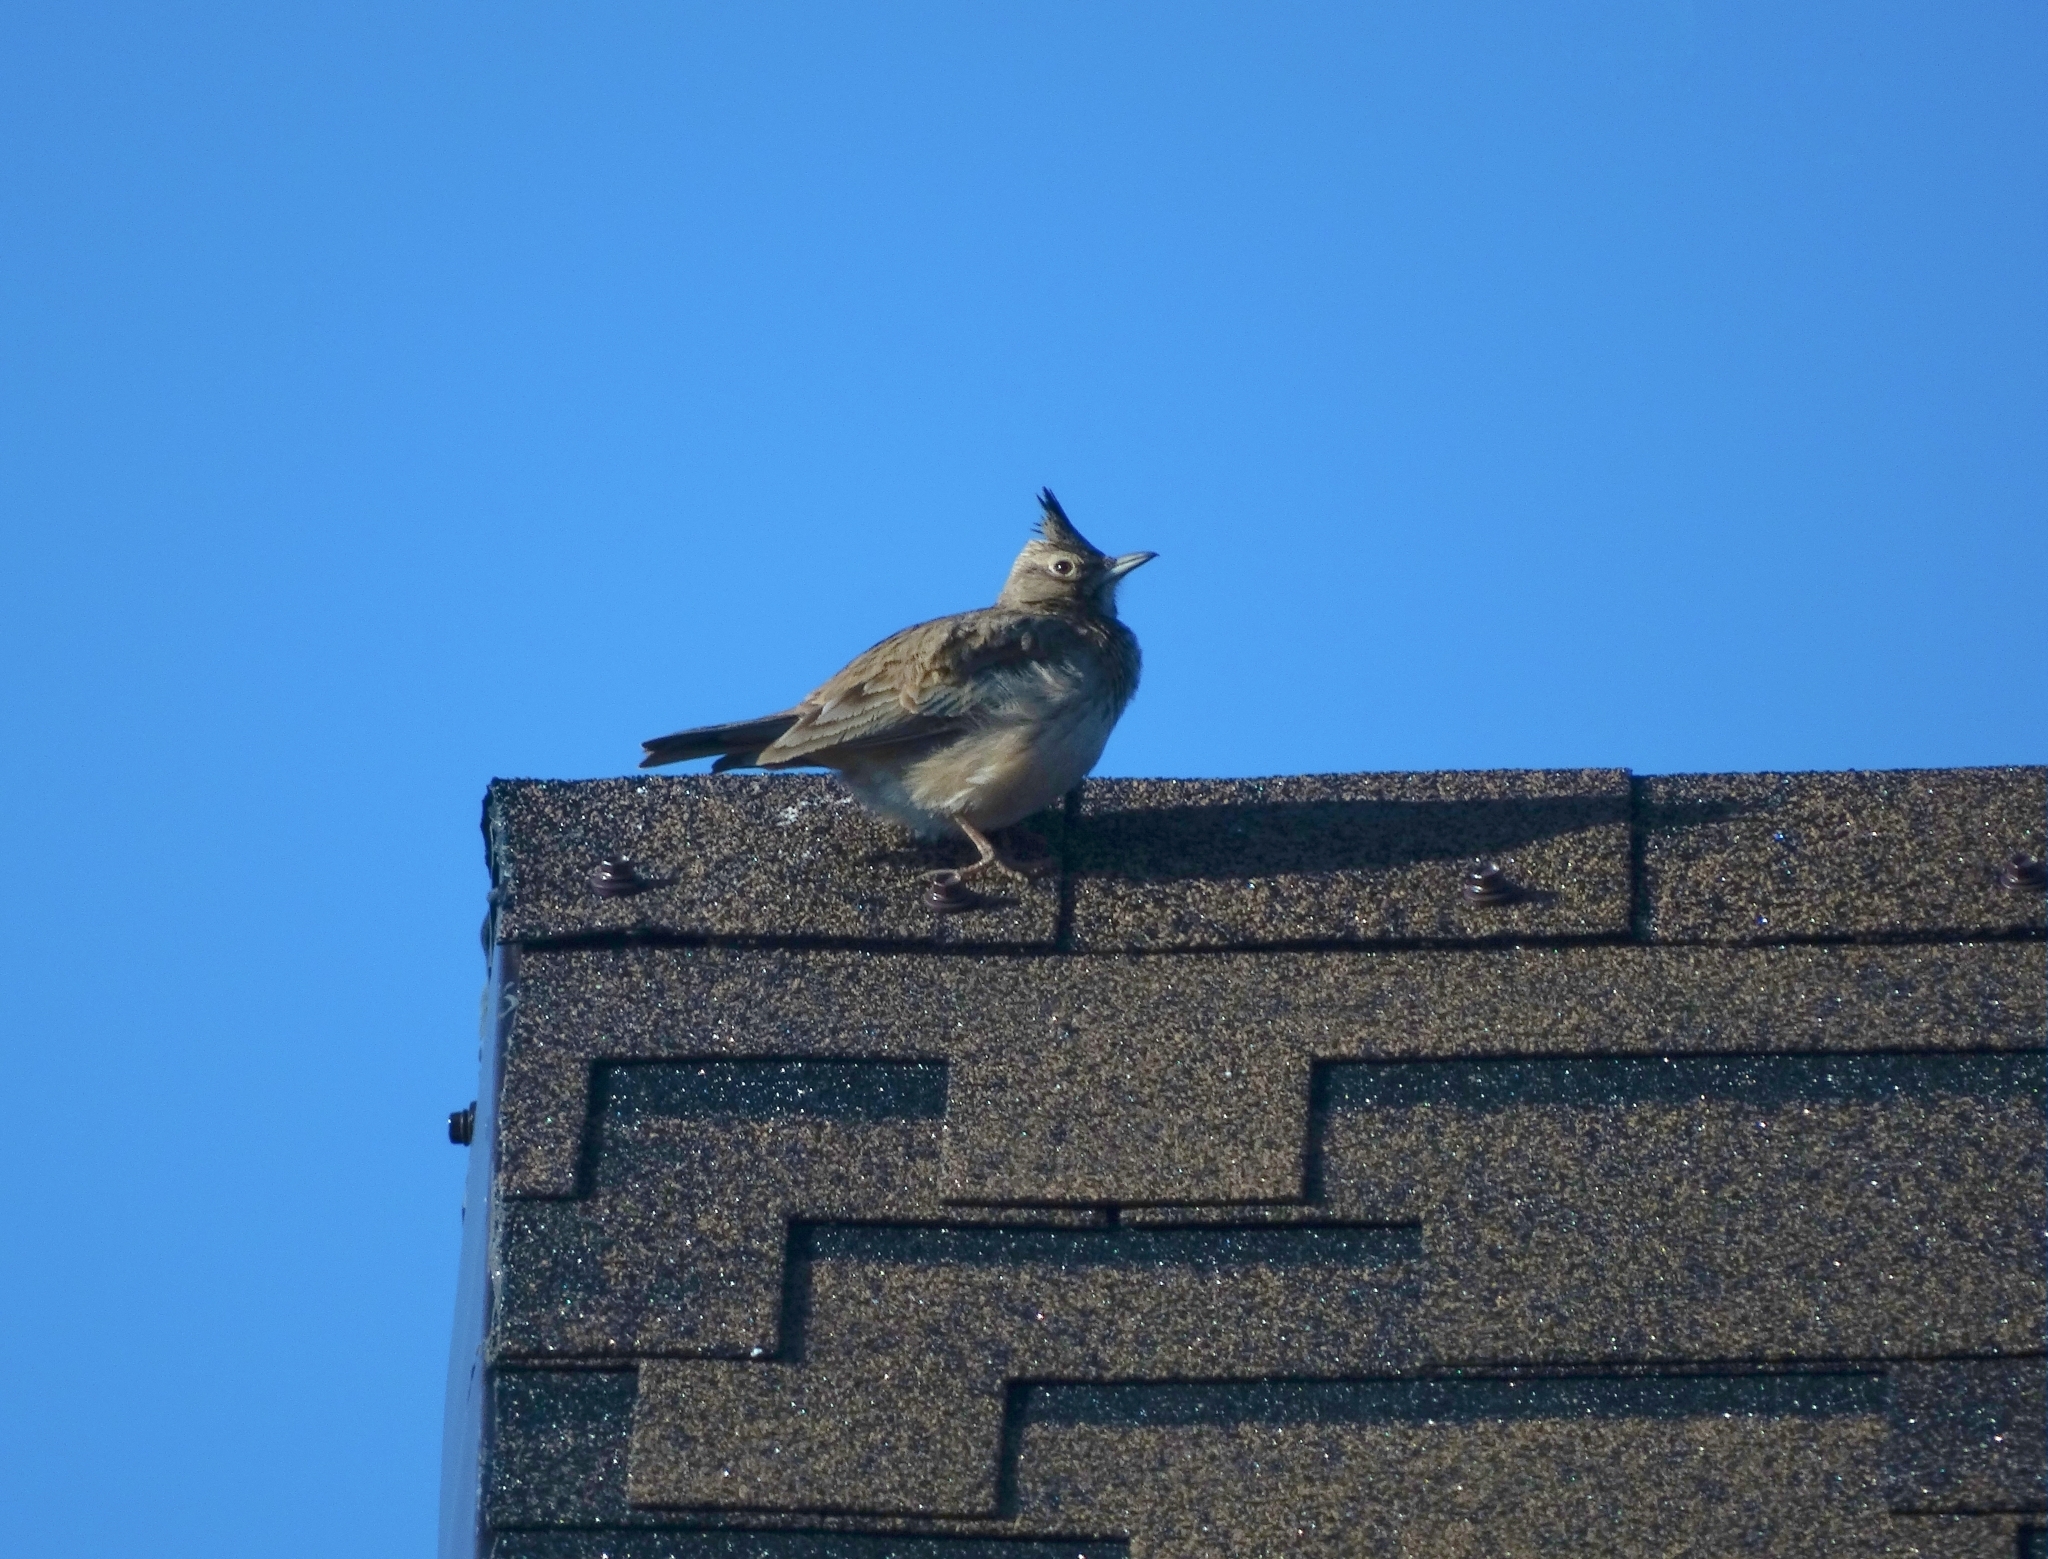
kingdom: Animalia
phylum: Chordata
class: Aves
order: Passeriformes
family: Alaudidae
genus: Galerida
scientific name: Galerida cristata
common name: Crested lark
